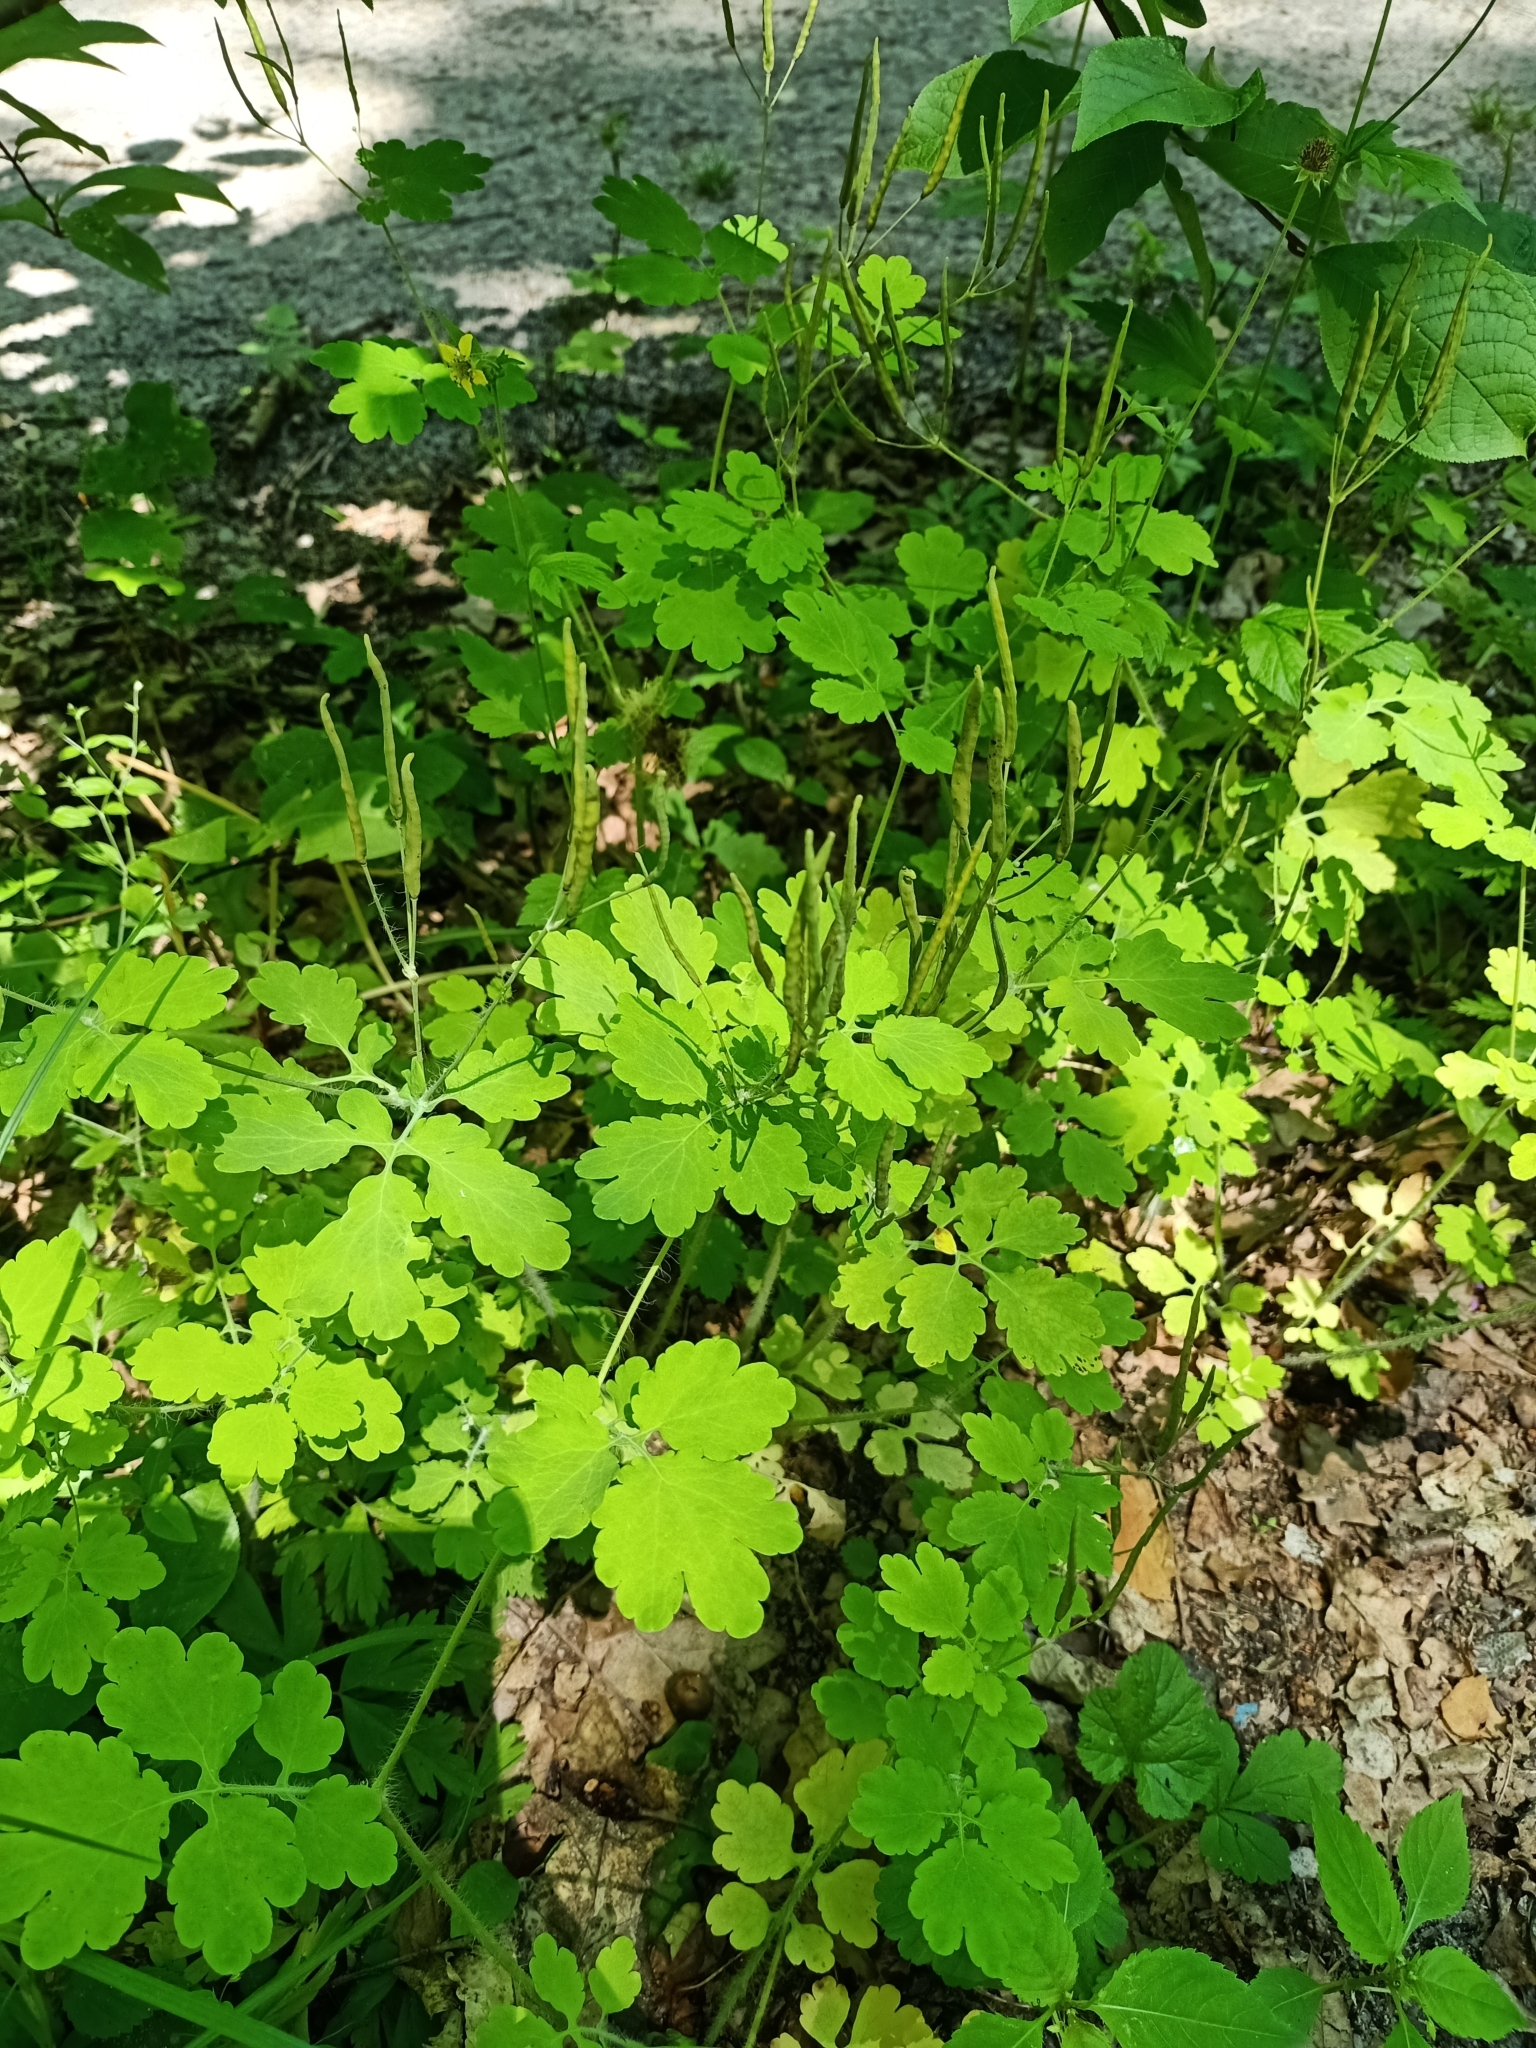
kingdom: Plantae
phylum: Tracheophyta
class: Magnoliopsida
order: Ranunculales
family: Papaveraceae
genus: Chelidonium
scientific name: Chelidonium majus
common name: Greater celandine
